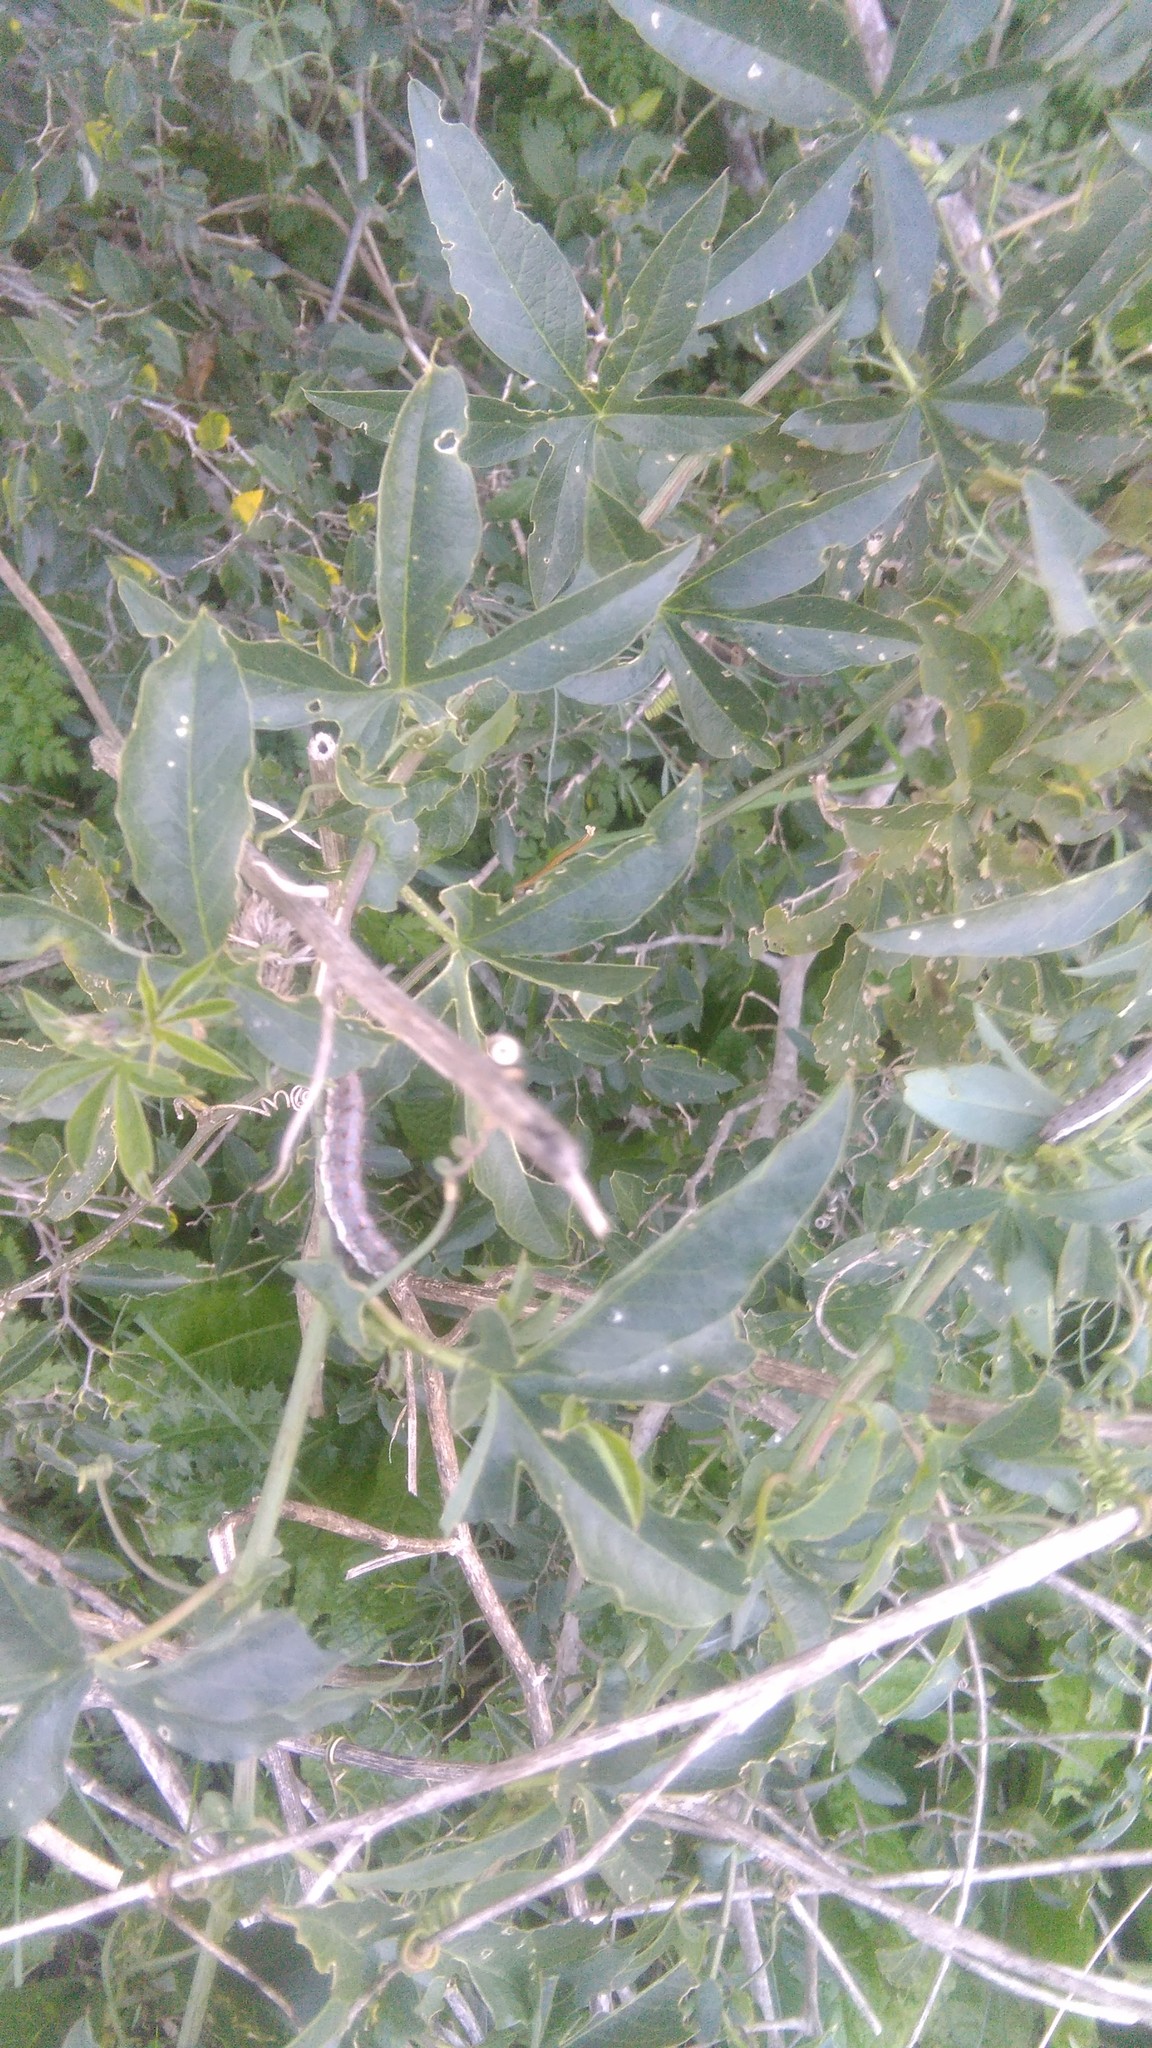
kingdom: Plantae
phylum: Tracheophyta
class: Magnoliopsida
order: Malpighiales
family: Passifloraceae
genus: Passiflora
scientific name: Passiflora caerulea
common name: Blue passionflower
